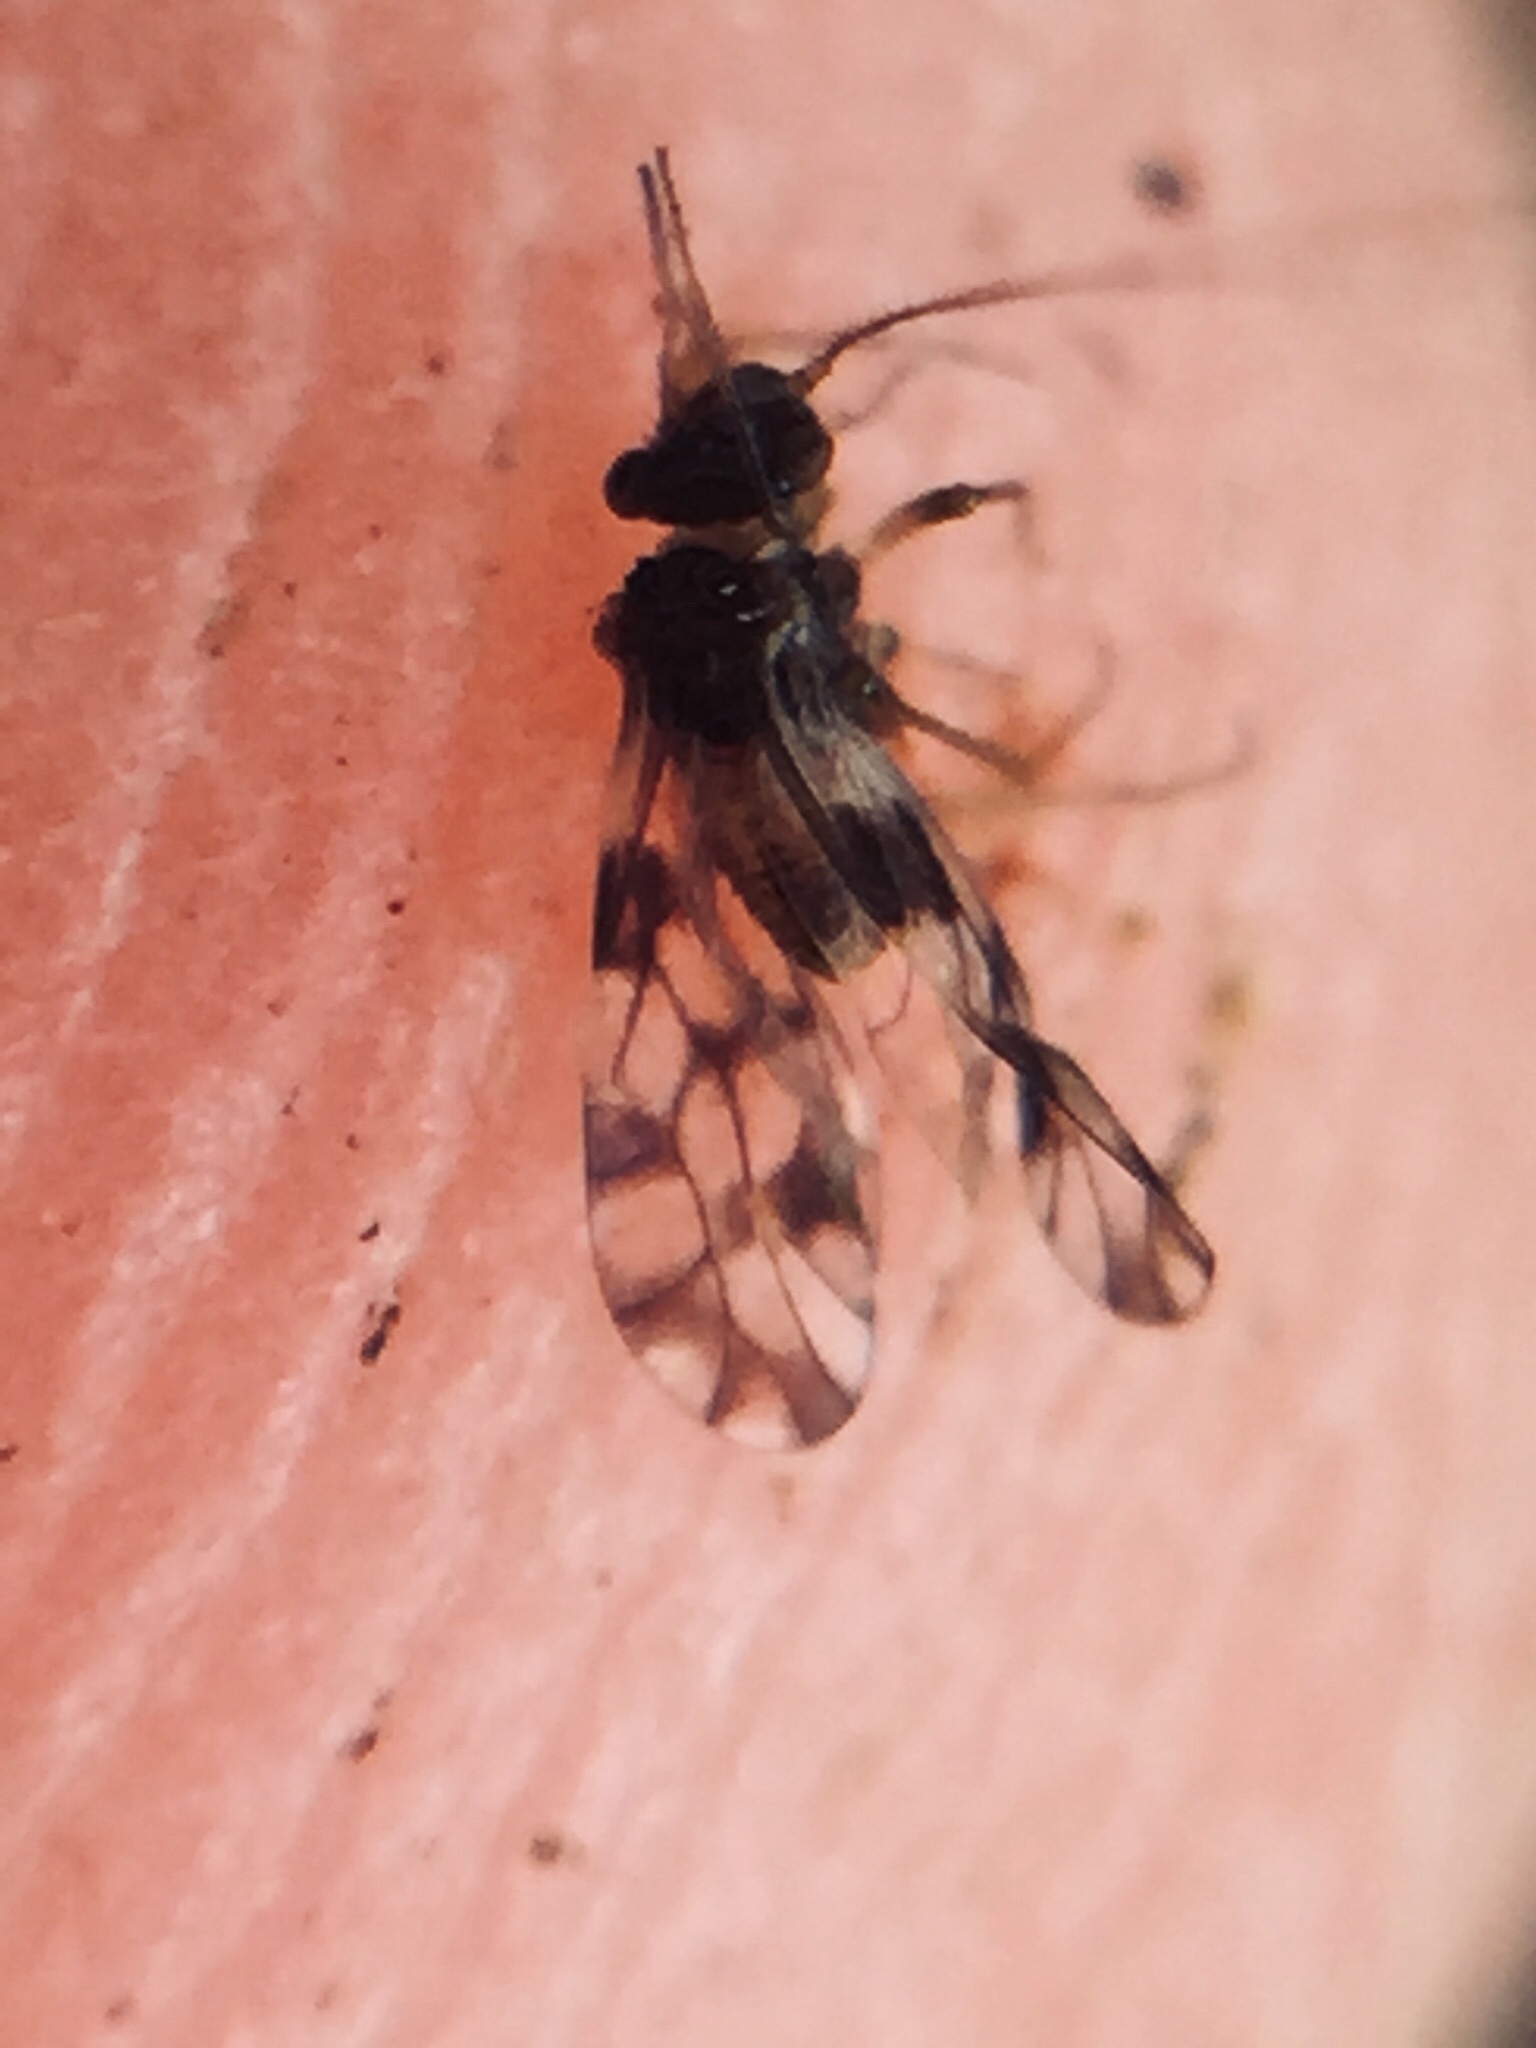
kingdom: Animalia
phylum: Arthropoda
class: Insecta
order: Psocodea
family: Elipsocidae
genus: Propsocus
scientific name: Propsocus pulchripennis
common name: Bark louse
